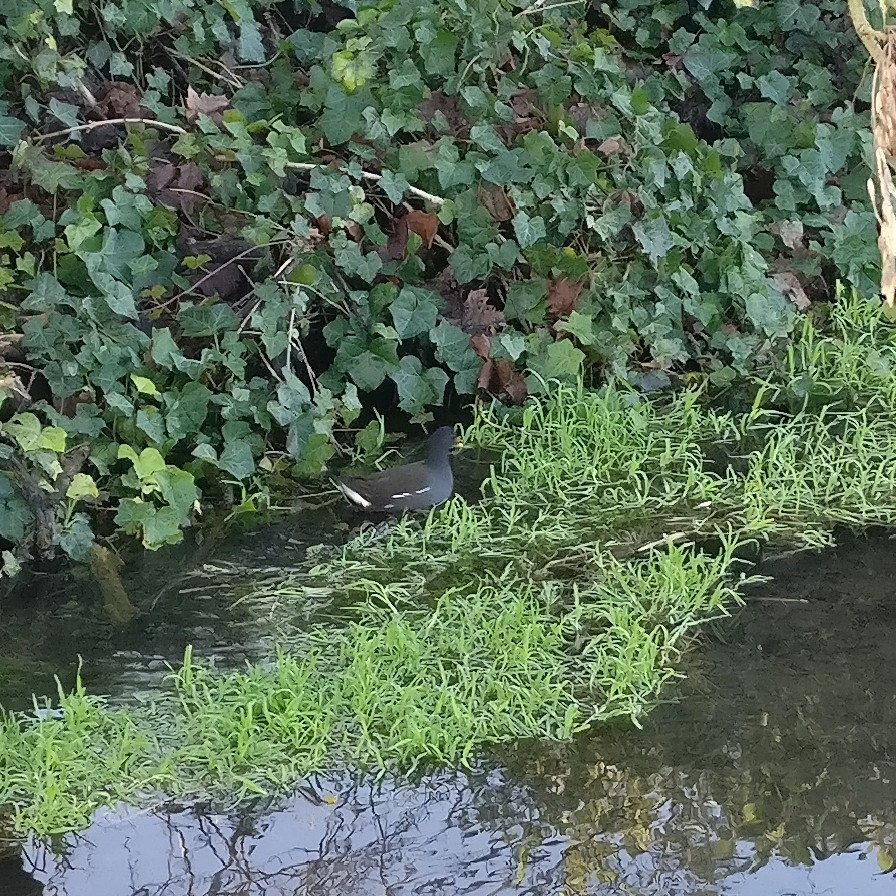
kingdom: Animalia
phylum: Chordata
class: Aves
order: Gruiformes
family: Rallidae
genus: Gallinula
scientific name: Gallinula chloropus
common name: Common moorhen
